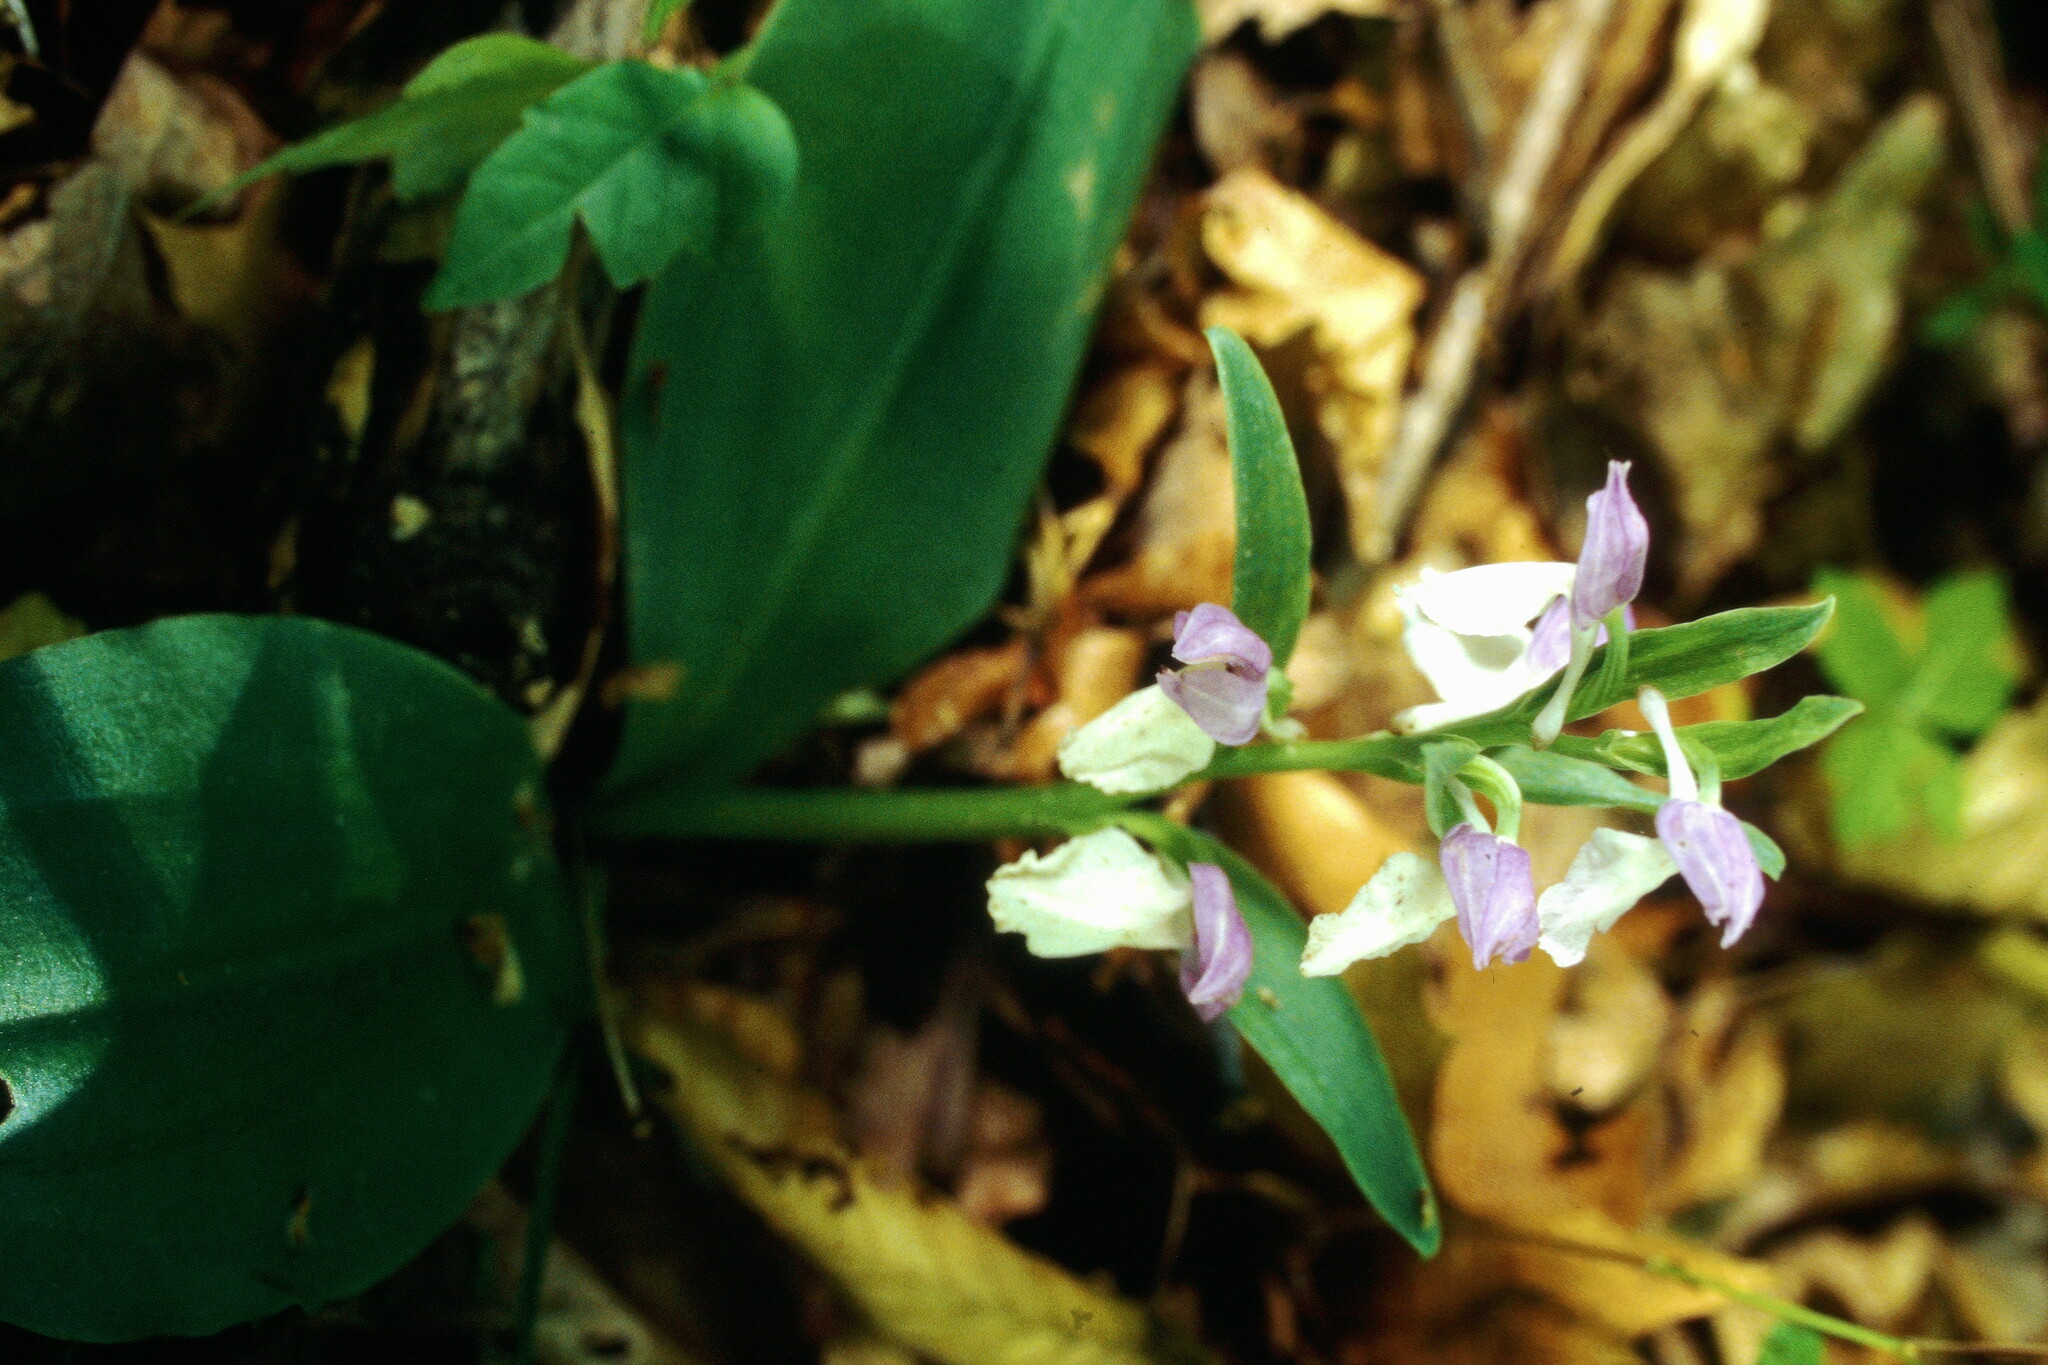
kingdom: Plantae
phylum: Tracheophyta
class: Liliopsida
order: Asparagales
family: Orchidaceae
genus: Galearis
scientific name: Galearis spectabilis
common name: Purple-hooded orchis
